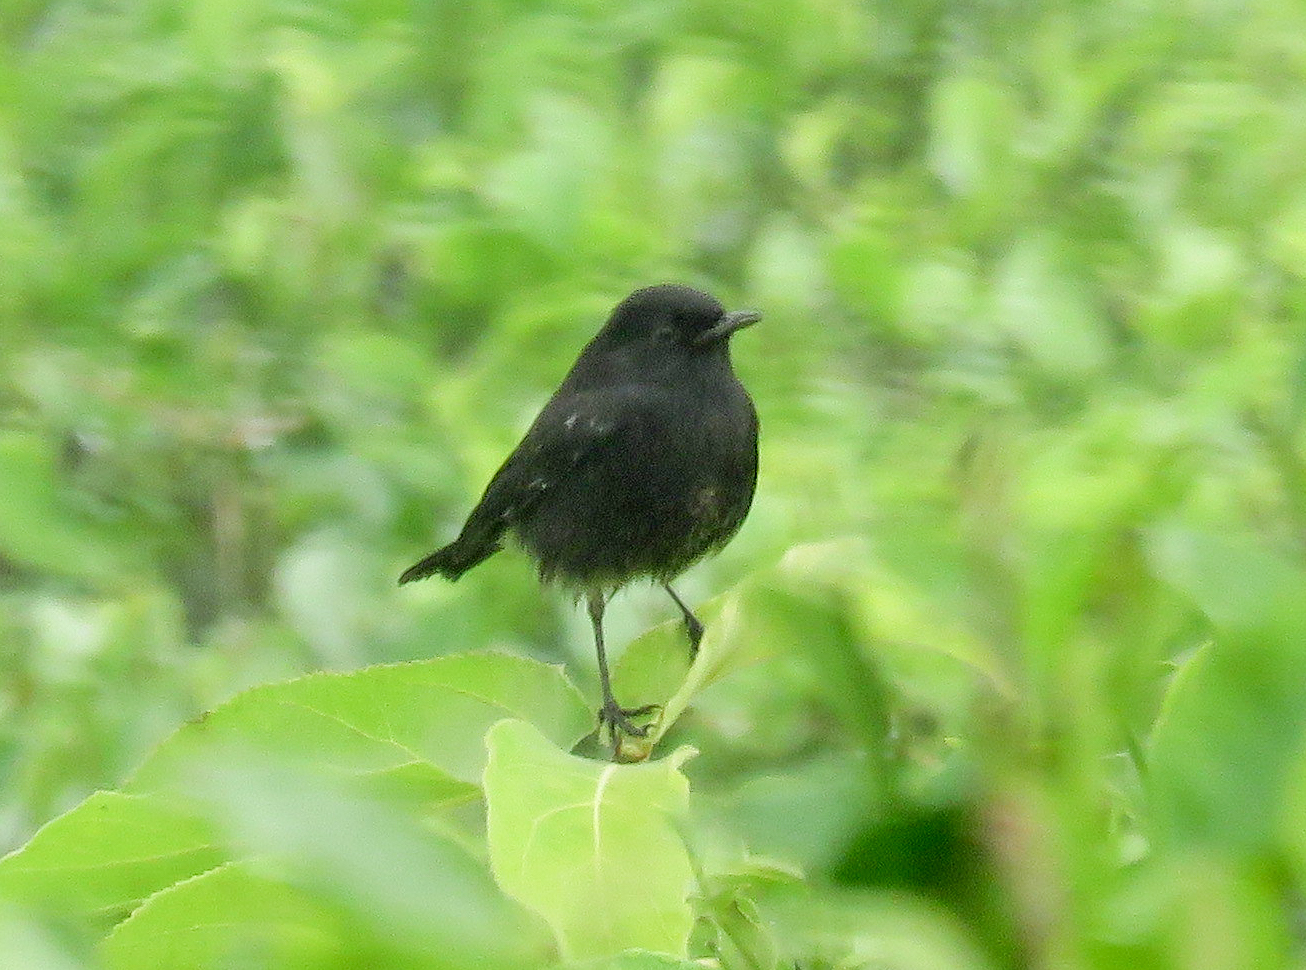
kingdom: Animalia
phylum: Chordata
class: Aves
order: Passeriformes
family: Muscicapidae
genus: Saxicola
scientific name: Saxicola caprata
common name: Pied bush chat
